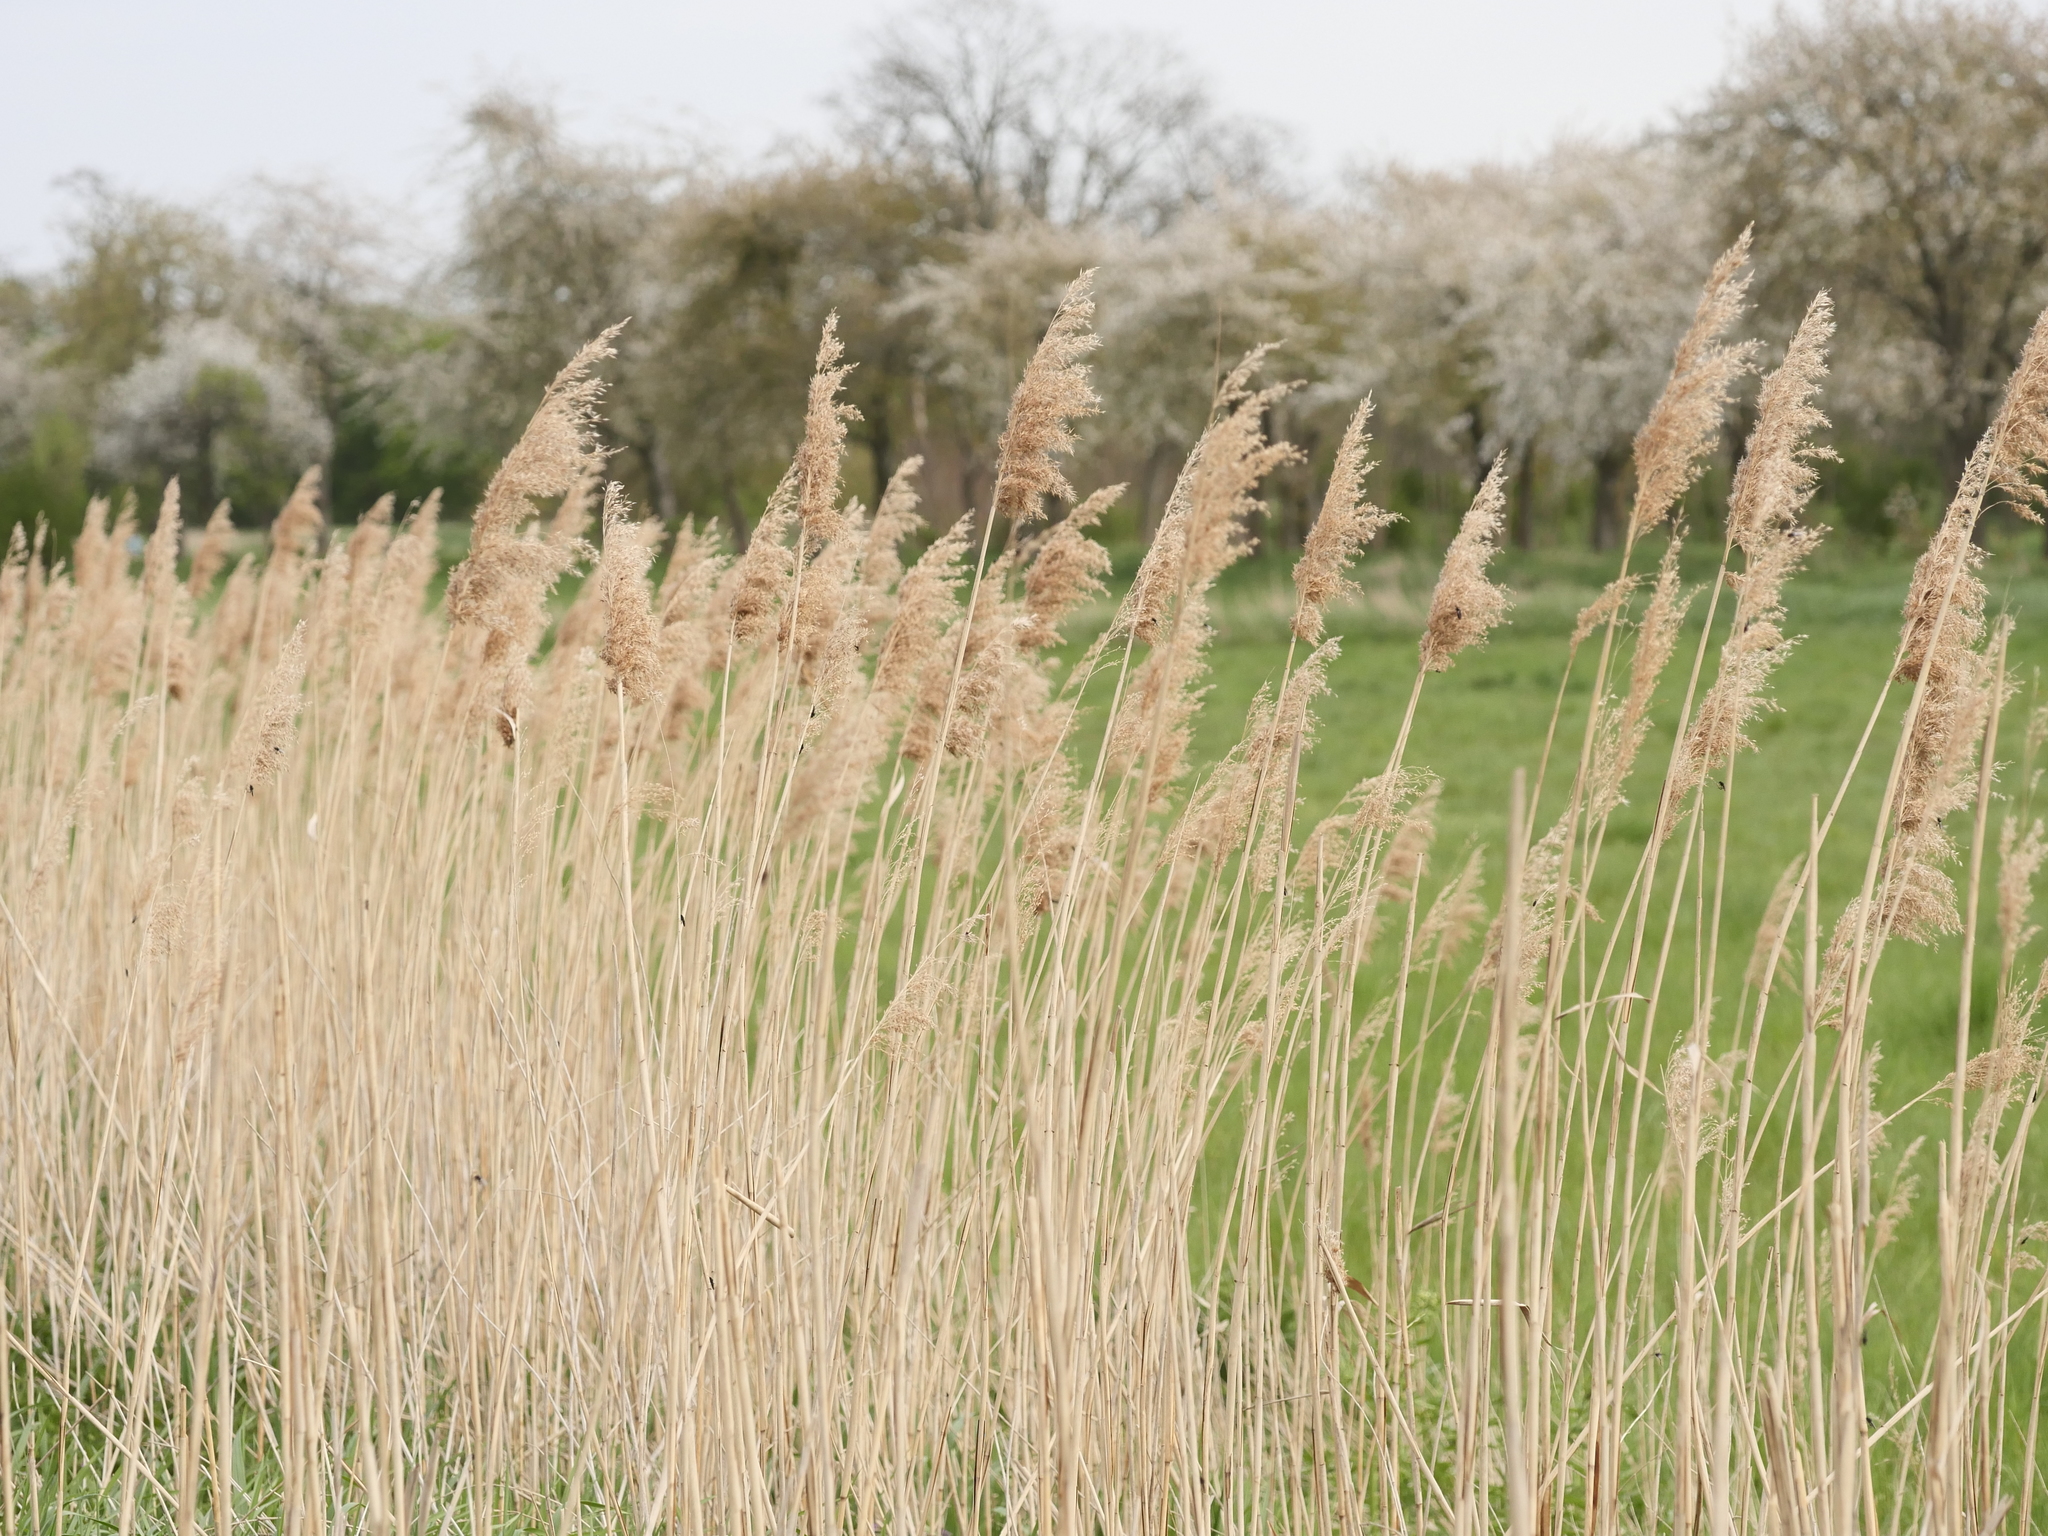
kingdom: Plantae
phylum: Tracheophyta
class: Liliopsida
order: Poales
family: Poaceae
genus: Phragmites
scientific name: Phragmites australis
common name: Common reed
